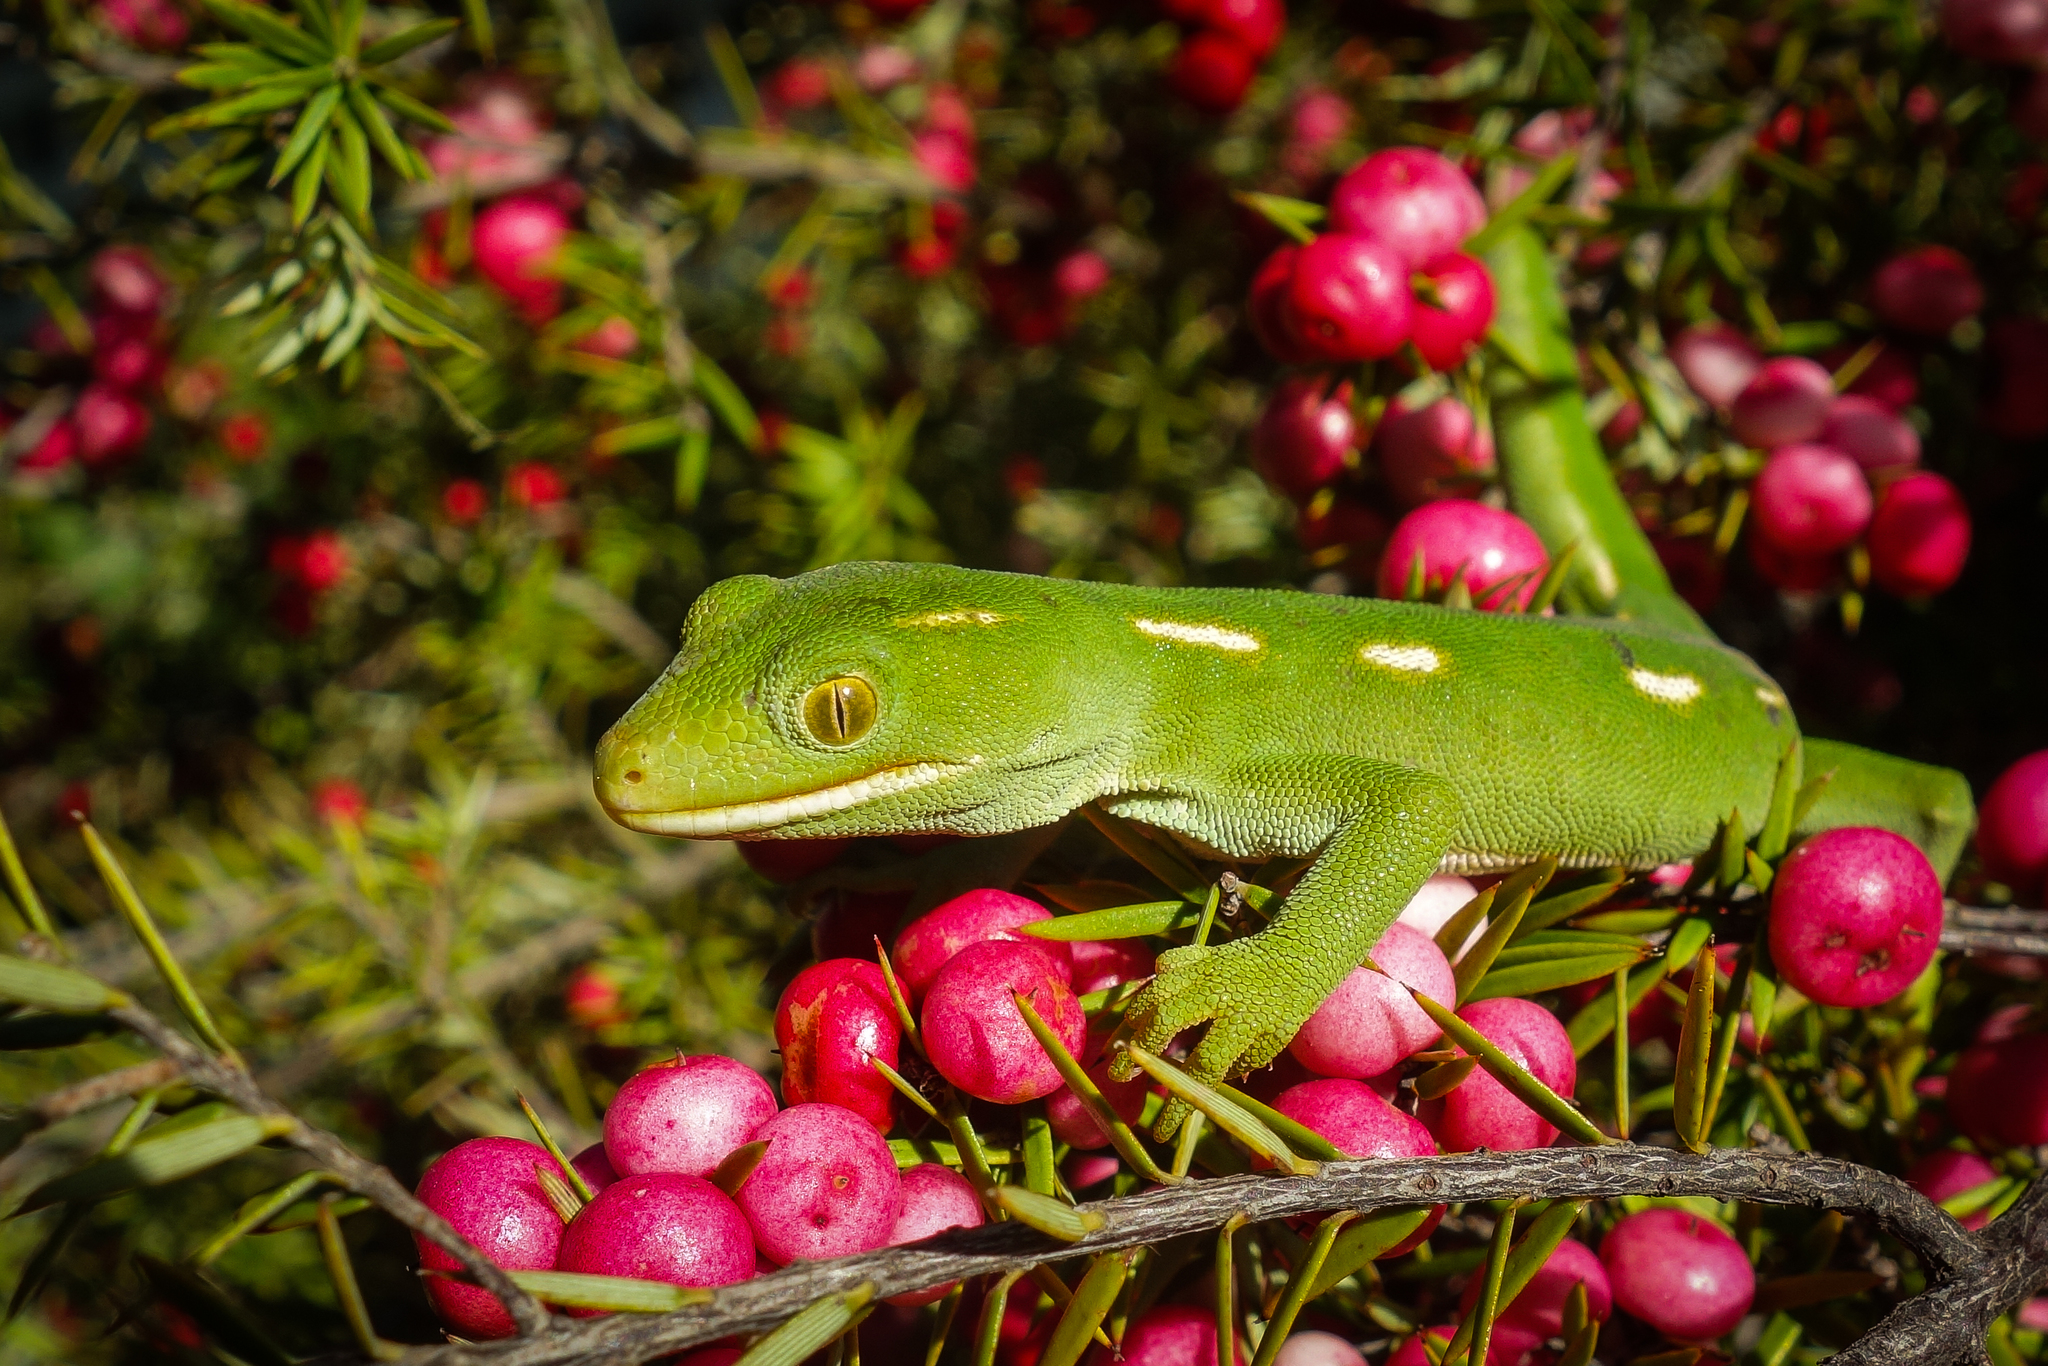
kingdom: Animalia
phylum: Chordata
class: Squamata
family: Diplodactylidae
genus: Naultinus
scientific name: Naultinus flavirictus
